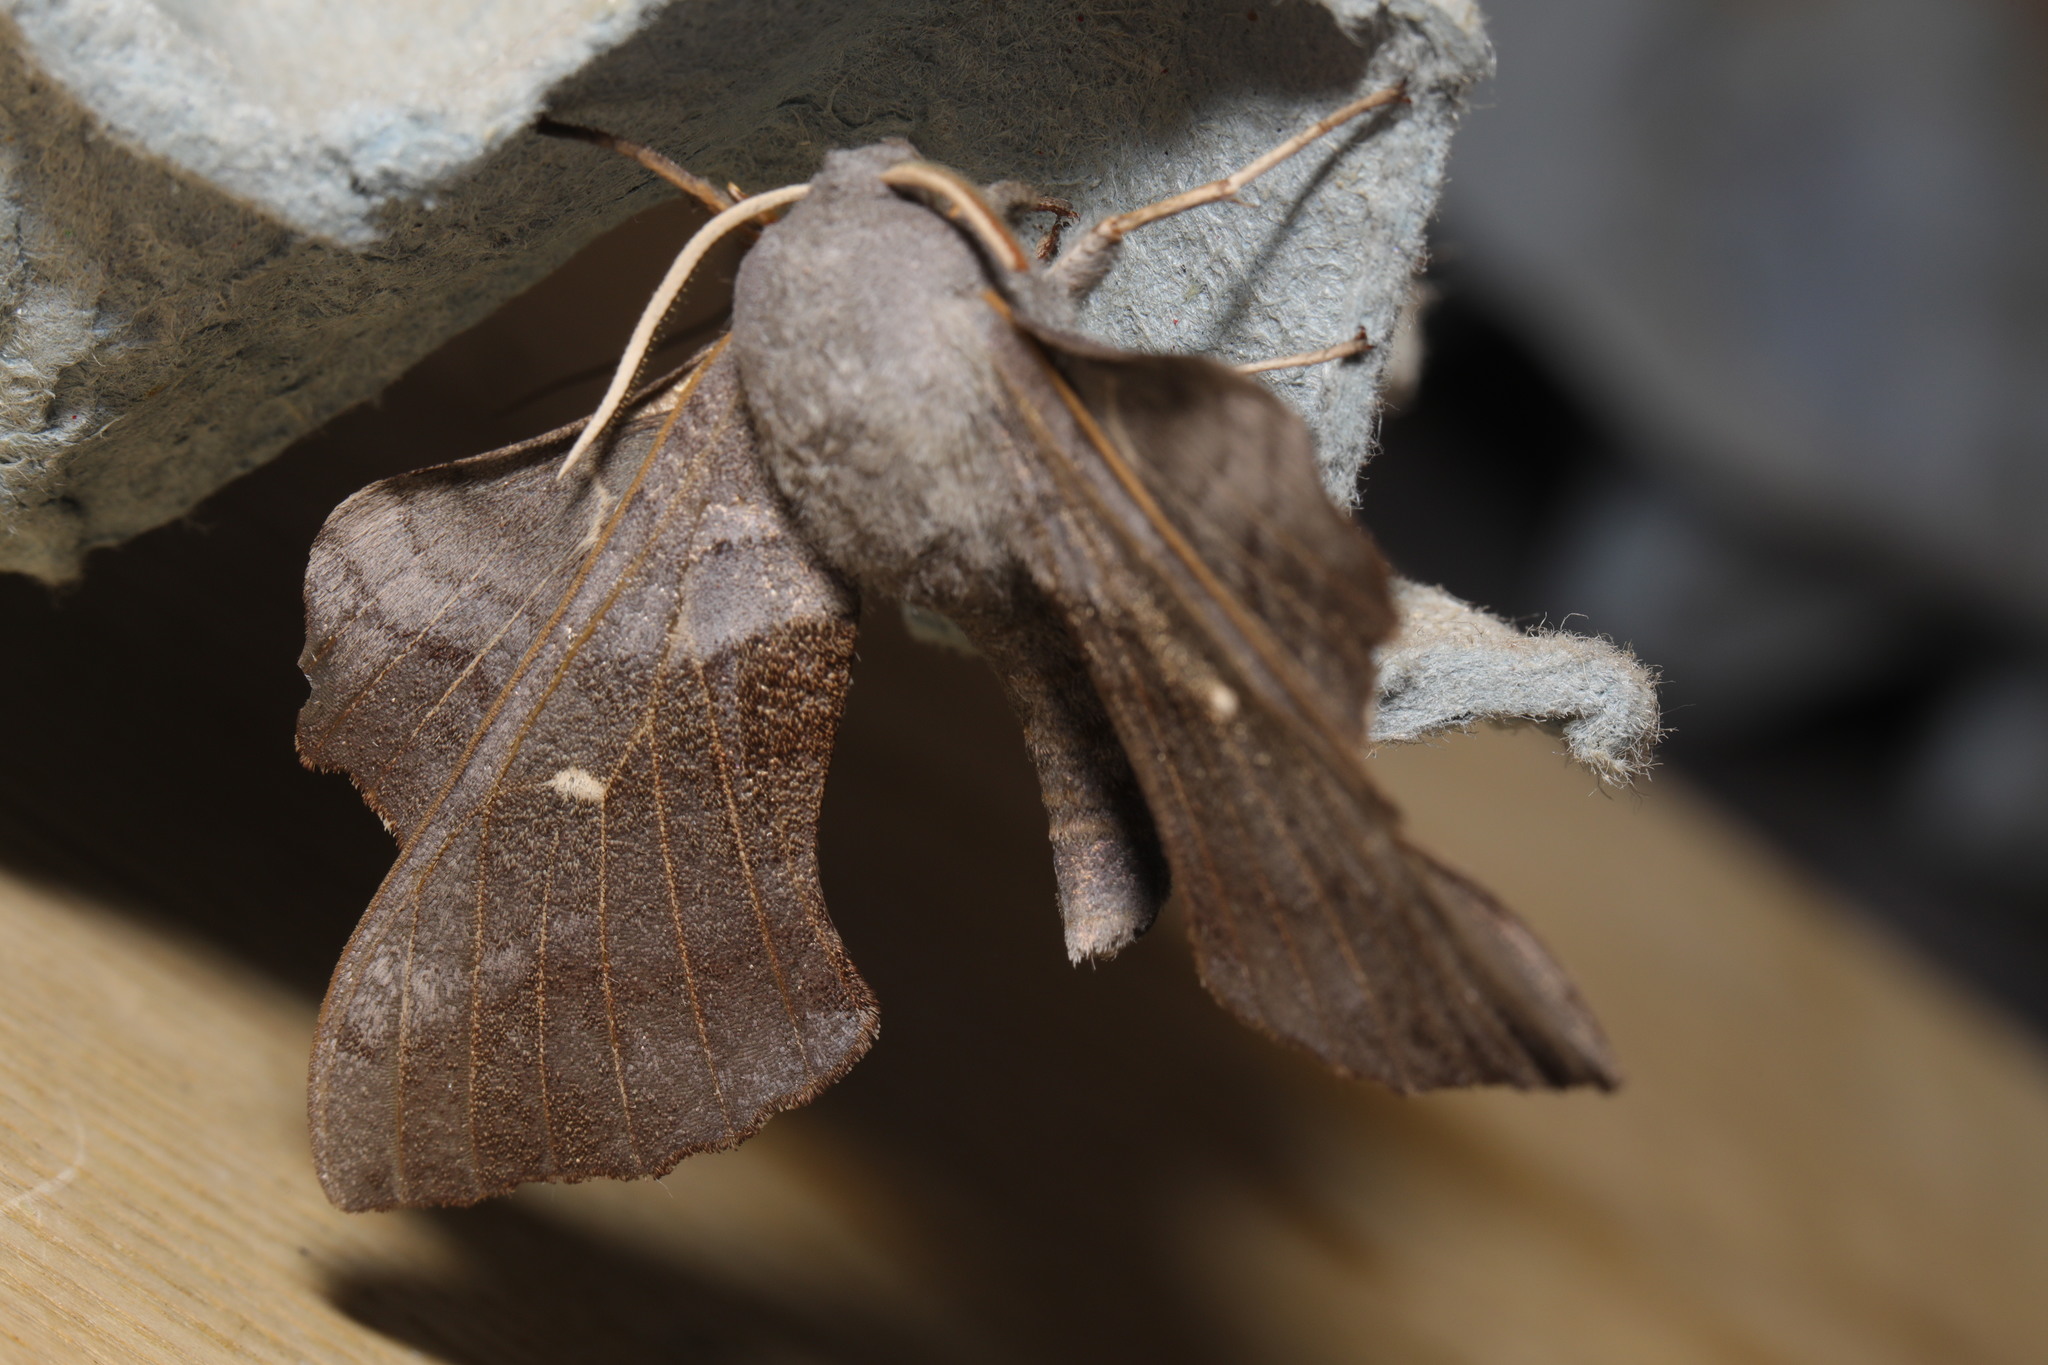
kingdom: Animalia
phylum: Arthropoda
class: Insecta
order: Lepidoptera
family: Sphingidae
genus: Laothoe
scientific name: Laothoe populi
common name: Poplar hawk-moth
